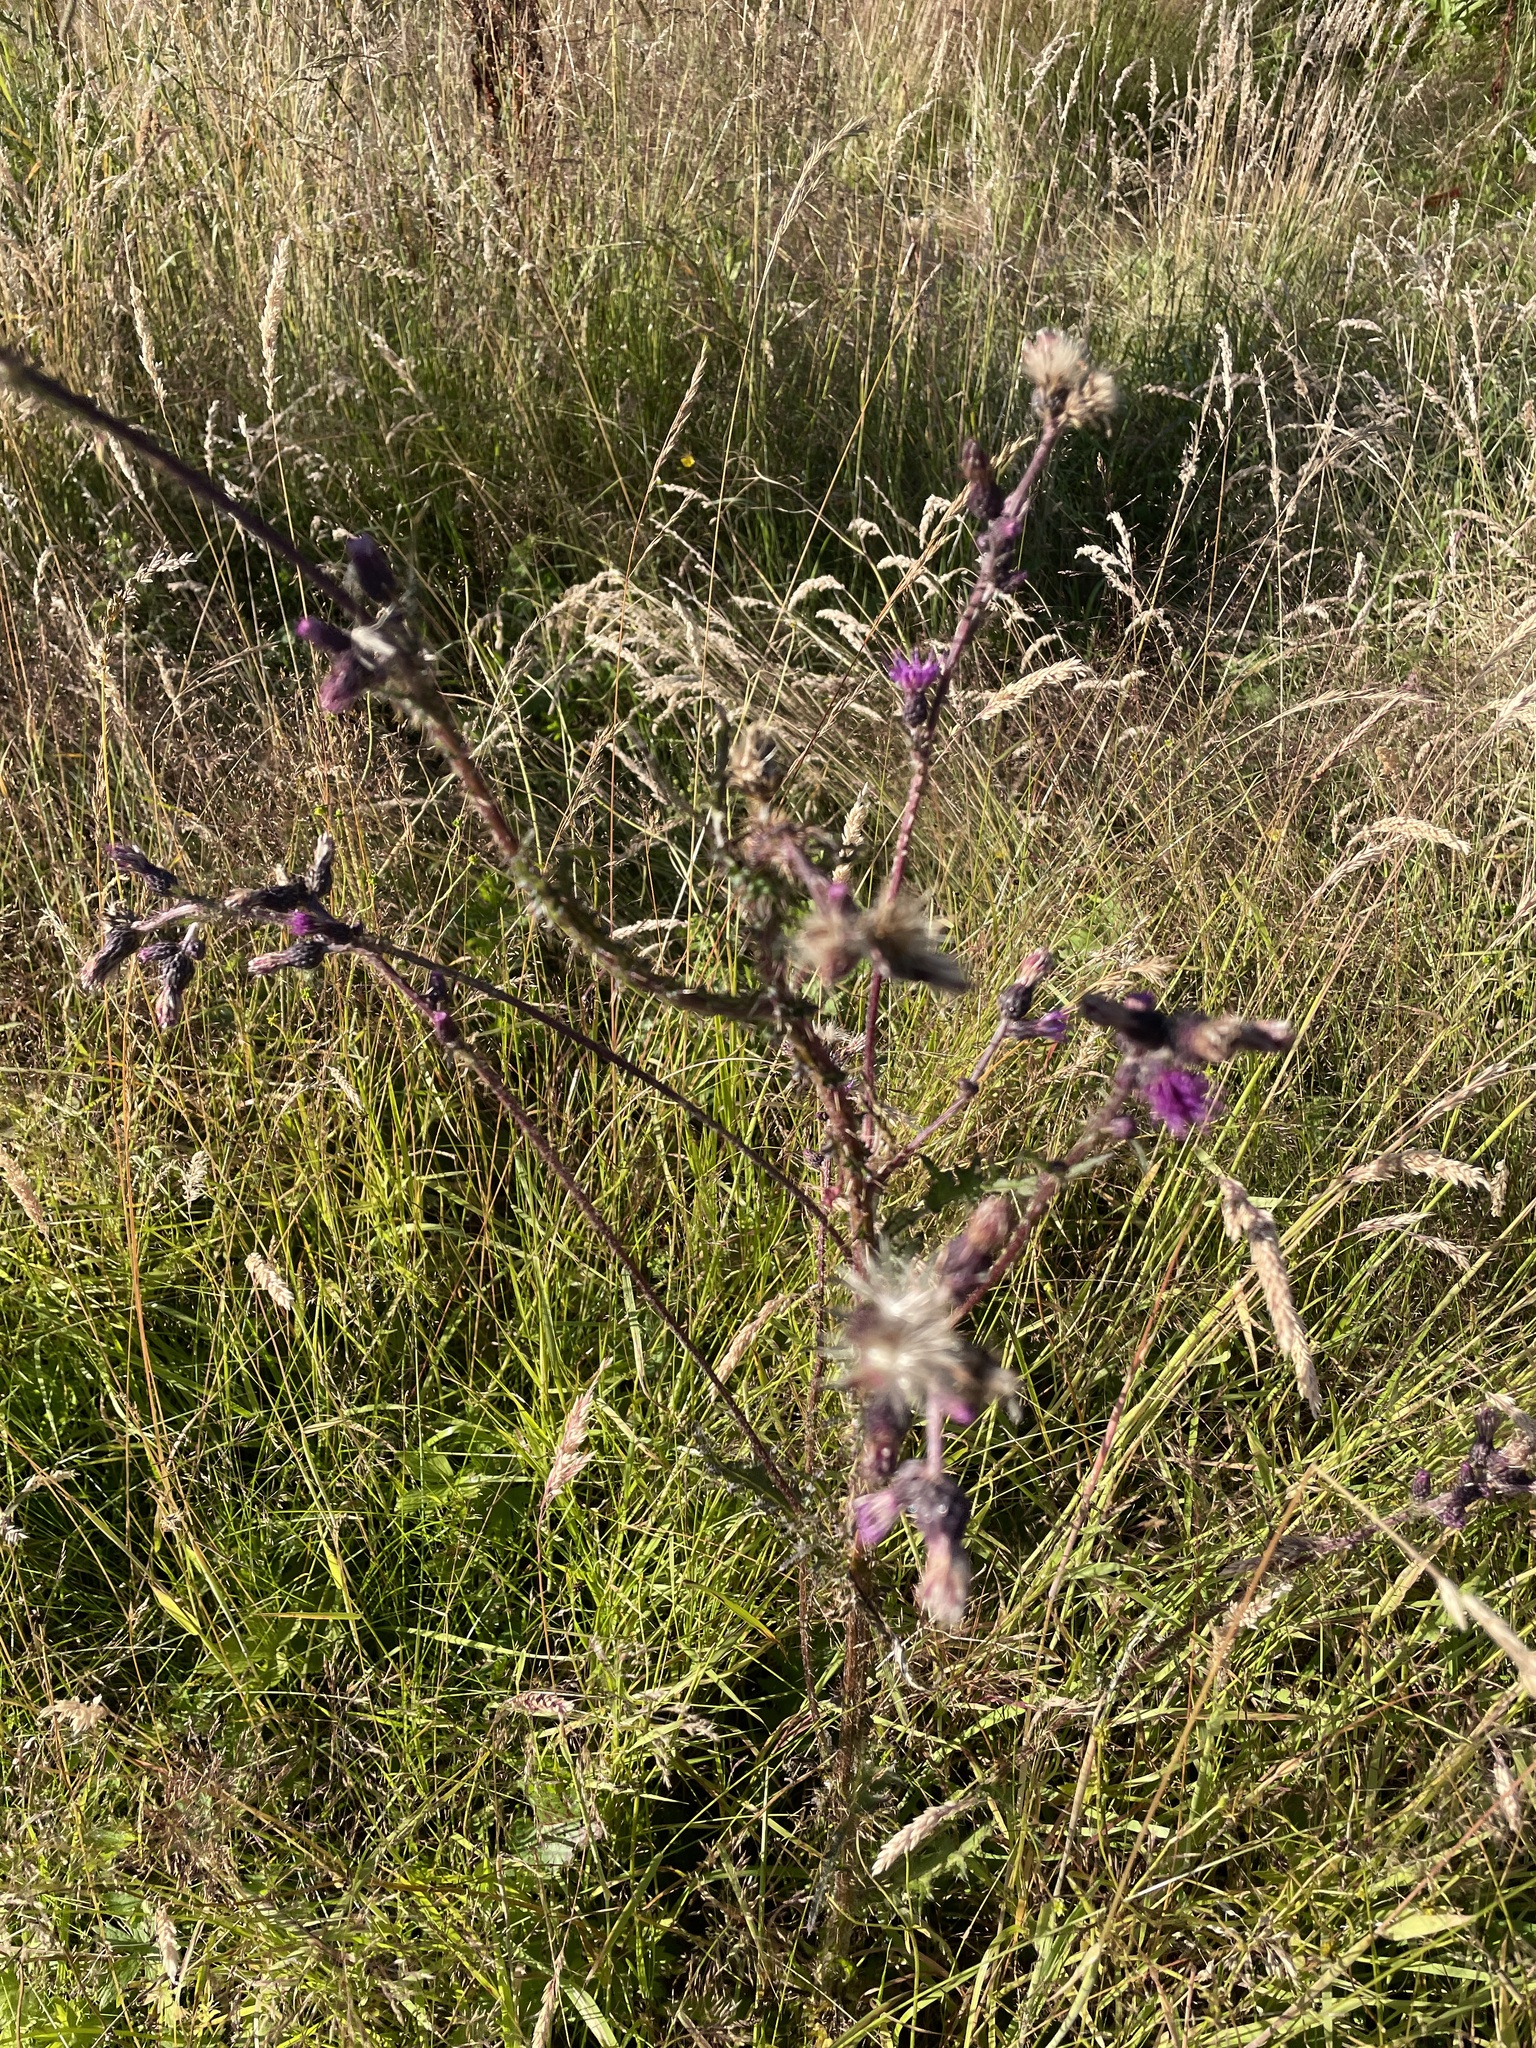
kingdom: Plantae
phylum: Tracheophyta
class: Magnoliopsida
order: Asterales
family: Asteraceae
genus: Cirsium
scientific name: Cirsium palustre
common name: Marsh thistle
